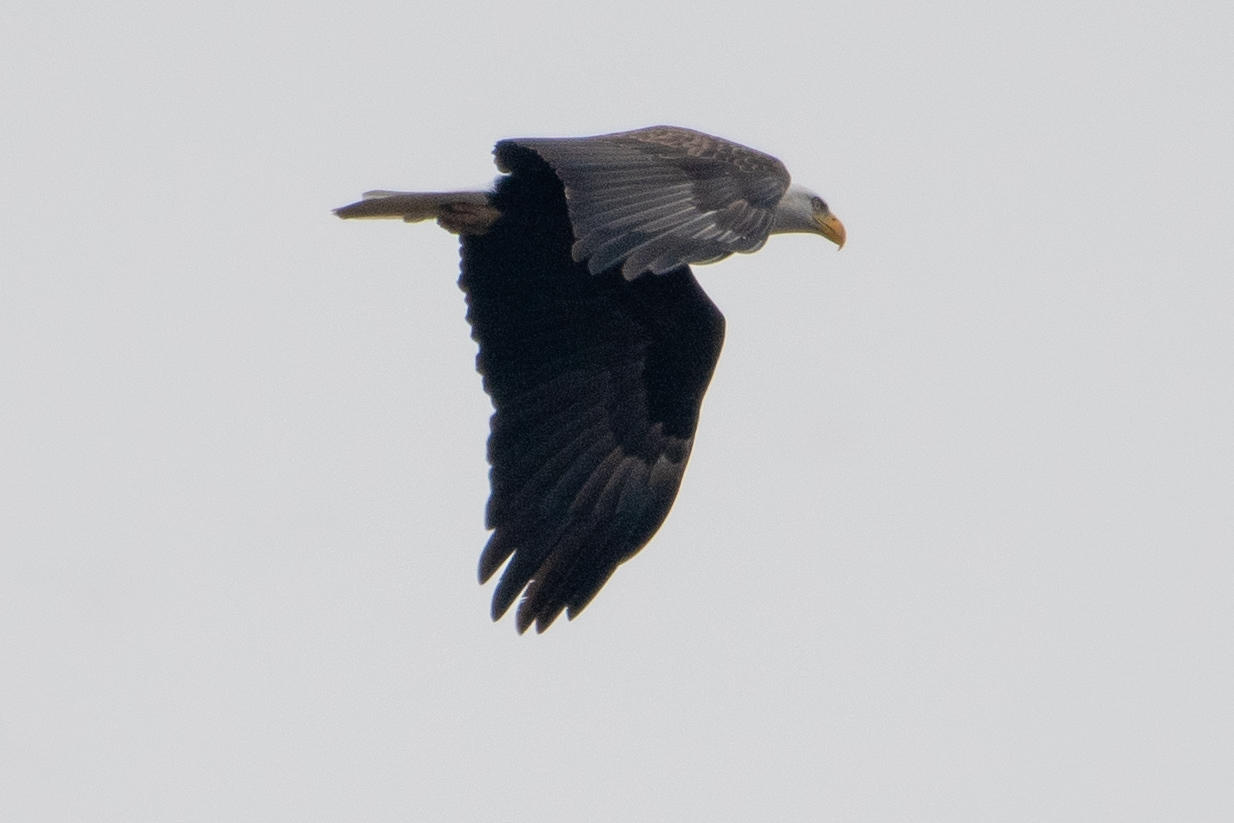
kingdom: Animalia
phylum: Chordata
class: Aves
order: Accipitriformes
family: Accipitridae
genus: Haliaeetus
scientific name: Haliaeetus leucocephalus
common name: Bald eagle
